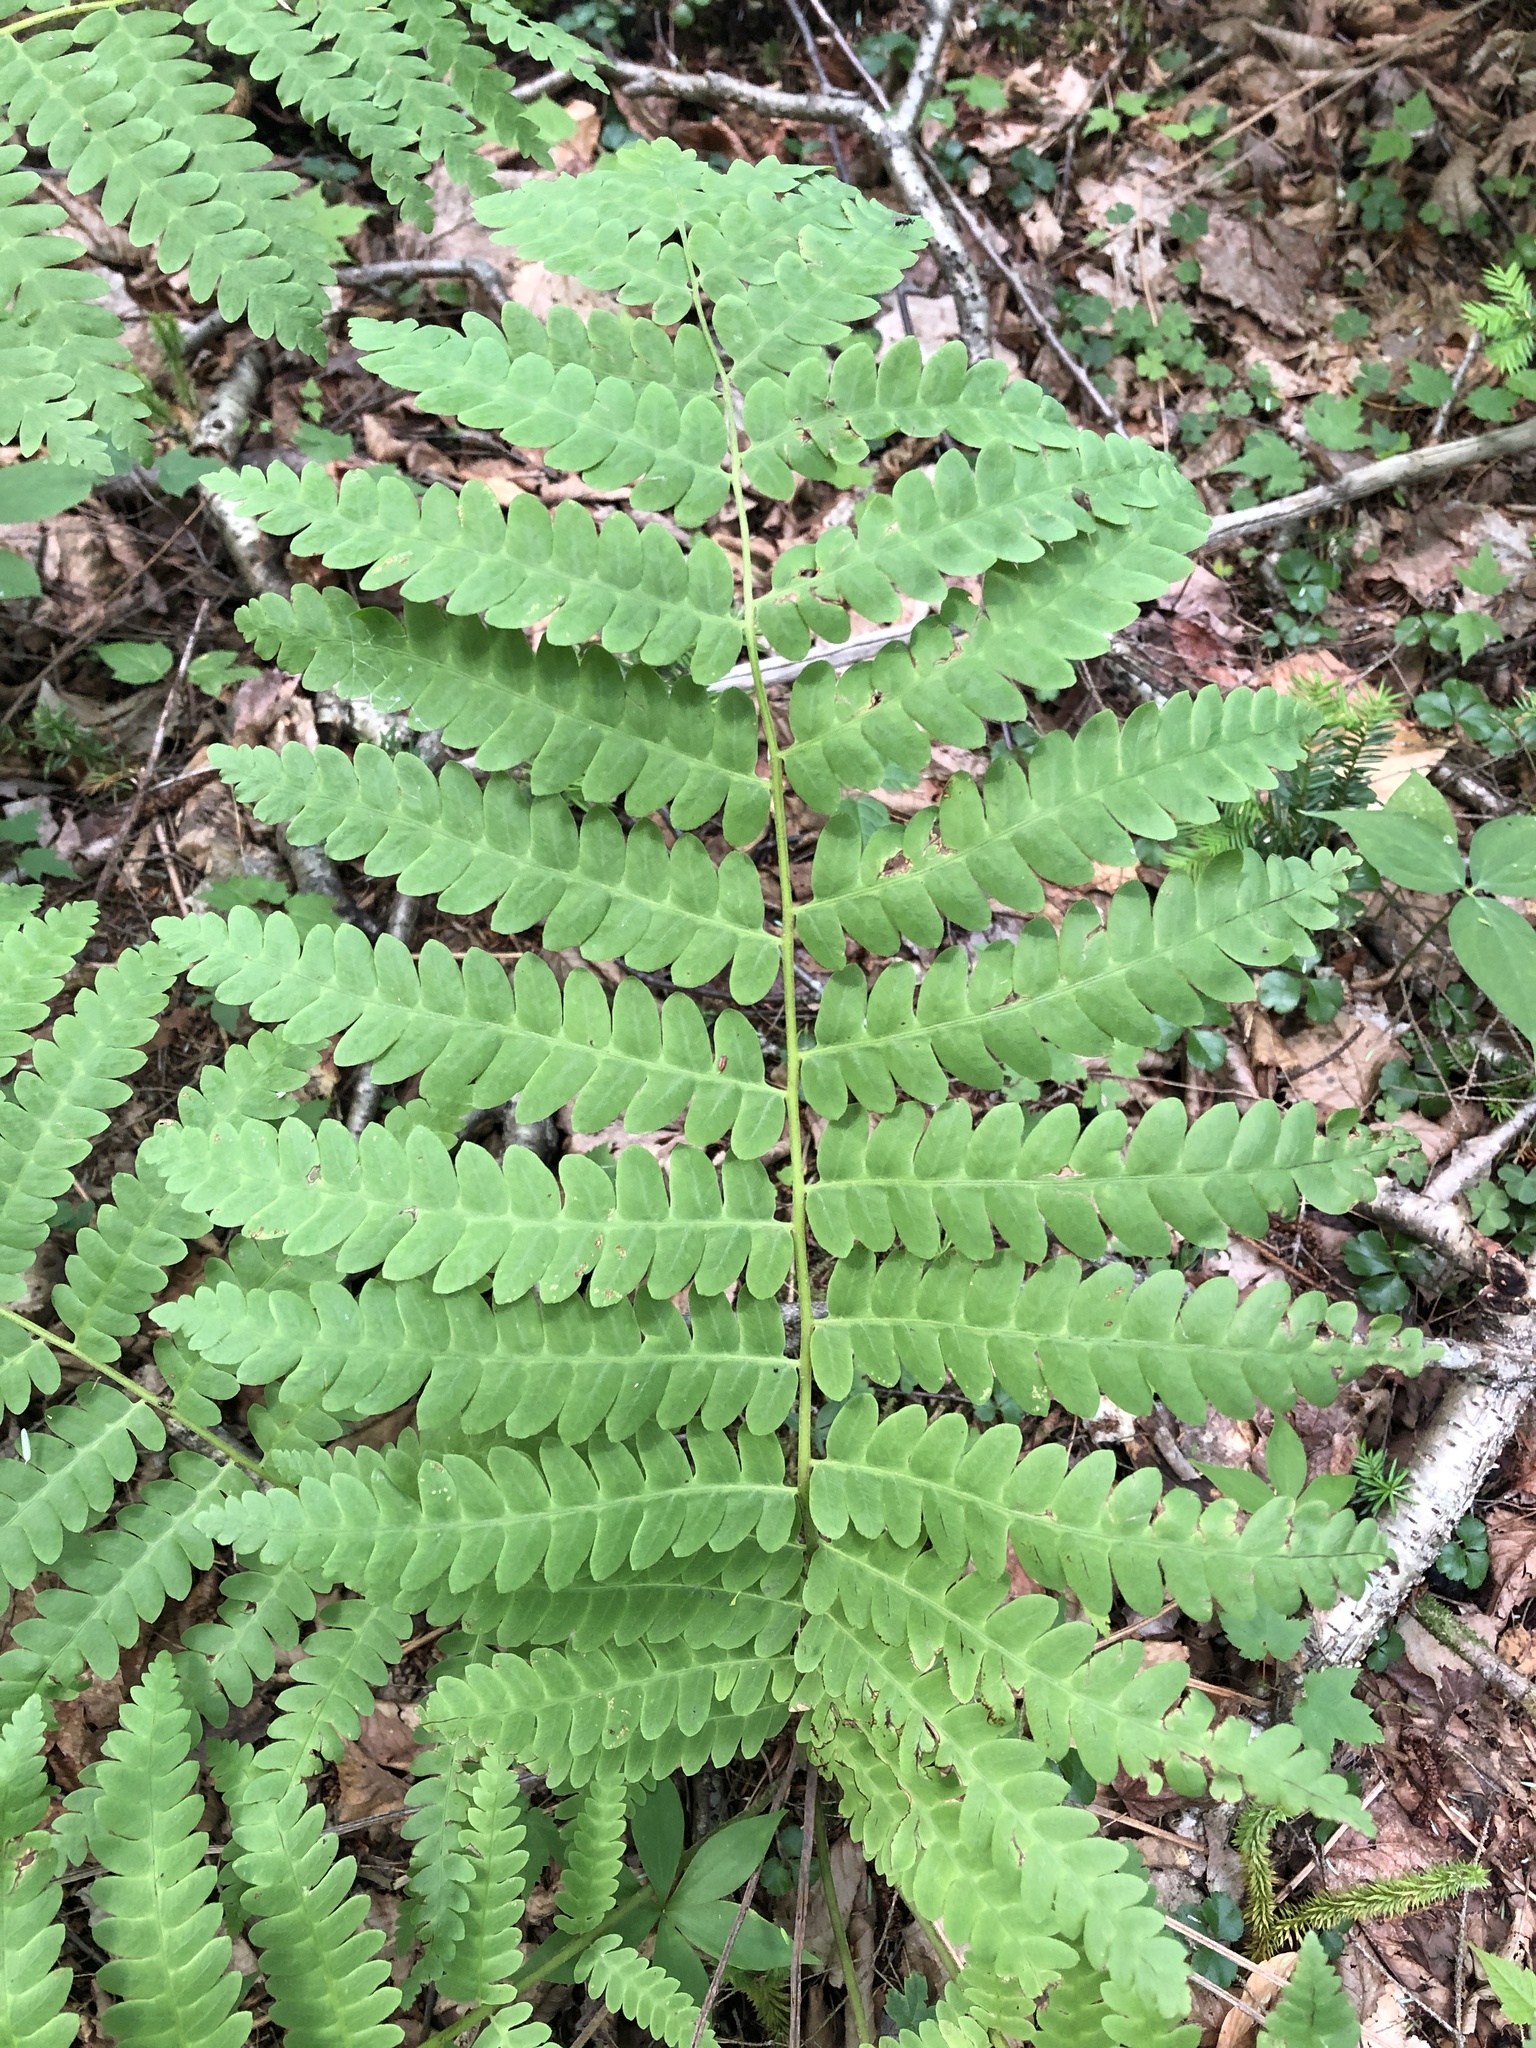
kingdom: Plantae
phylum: Tracheophyta
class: Polypodiopsida
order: Osmundales
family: Osmundaceae
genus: Claytosmunda
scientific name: Claytosmunda claytoniana
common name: Clayton's fern
